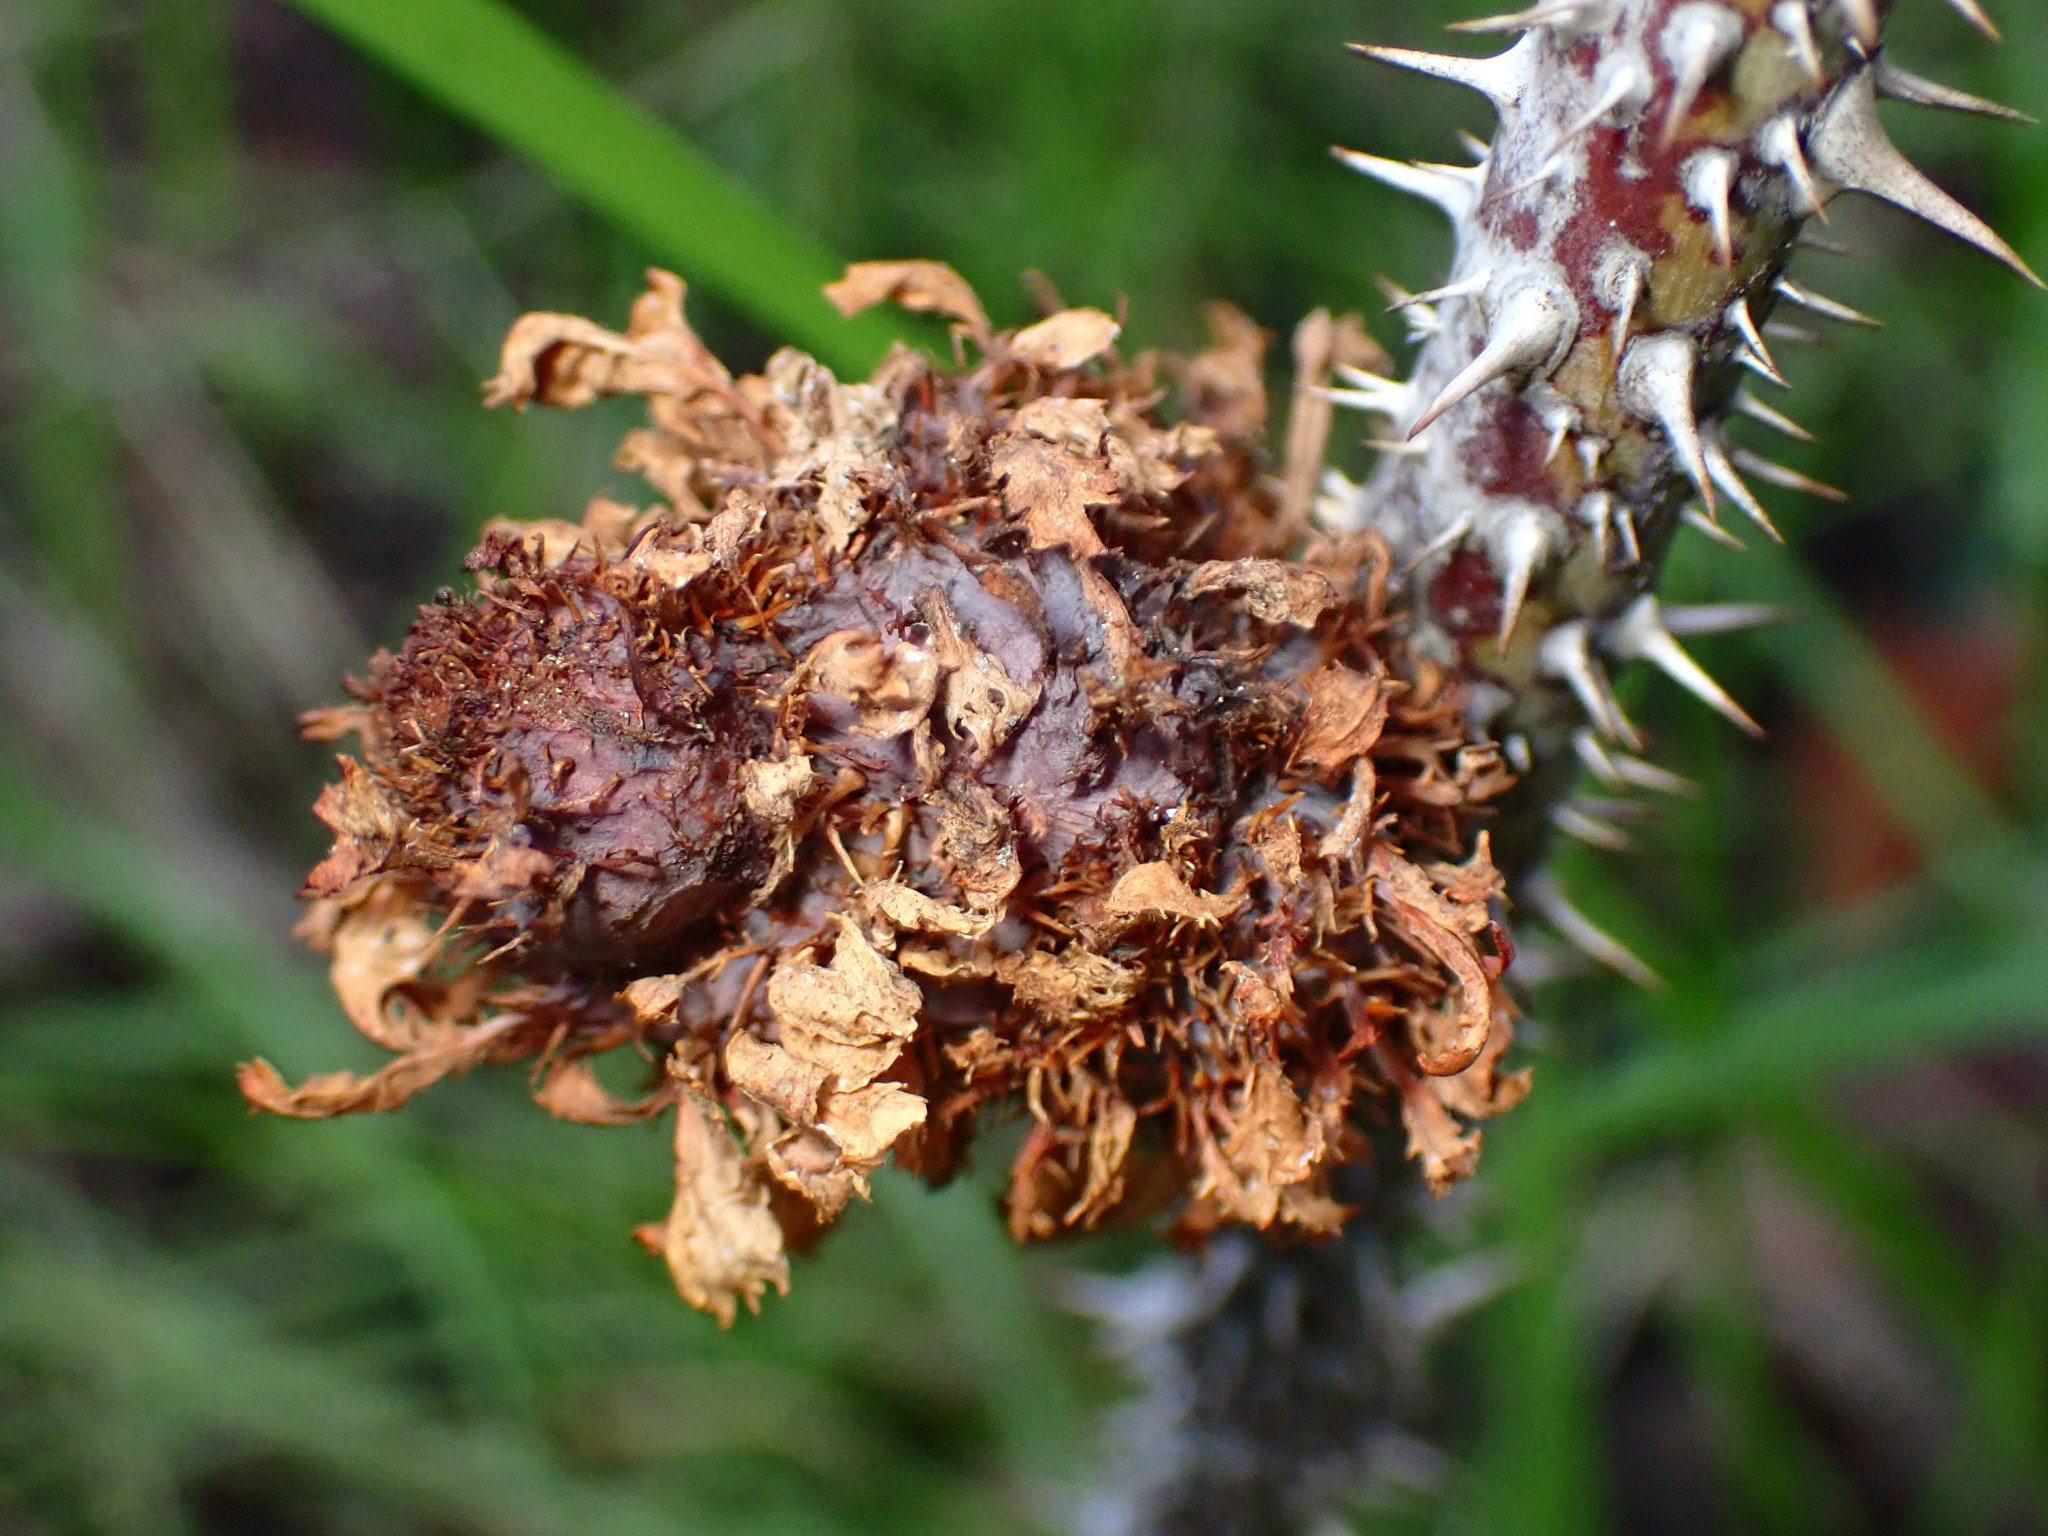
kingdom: Animalia
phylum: Arthropoda
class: Insecta
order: Hymenoptera
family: Cynipidae
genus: Diplolepis
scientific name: Diplolepis californica
